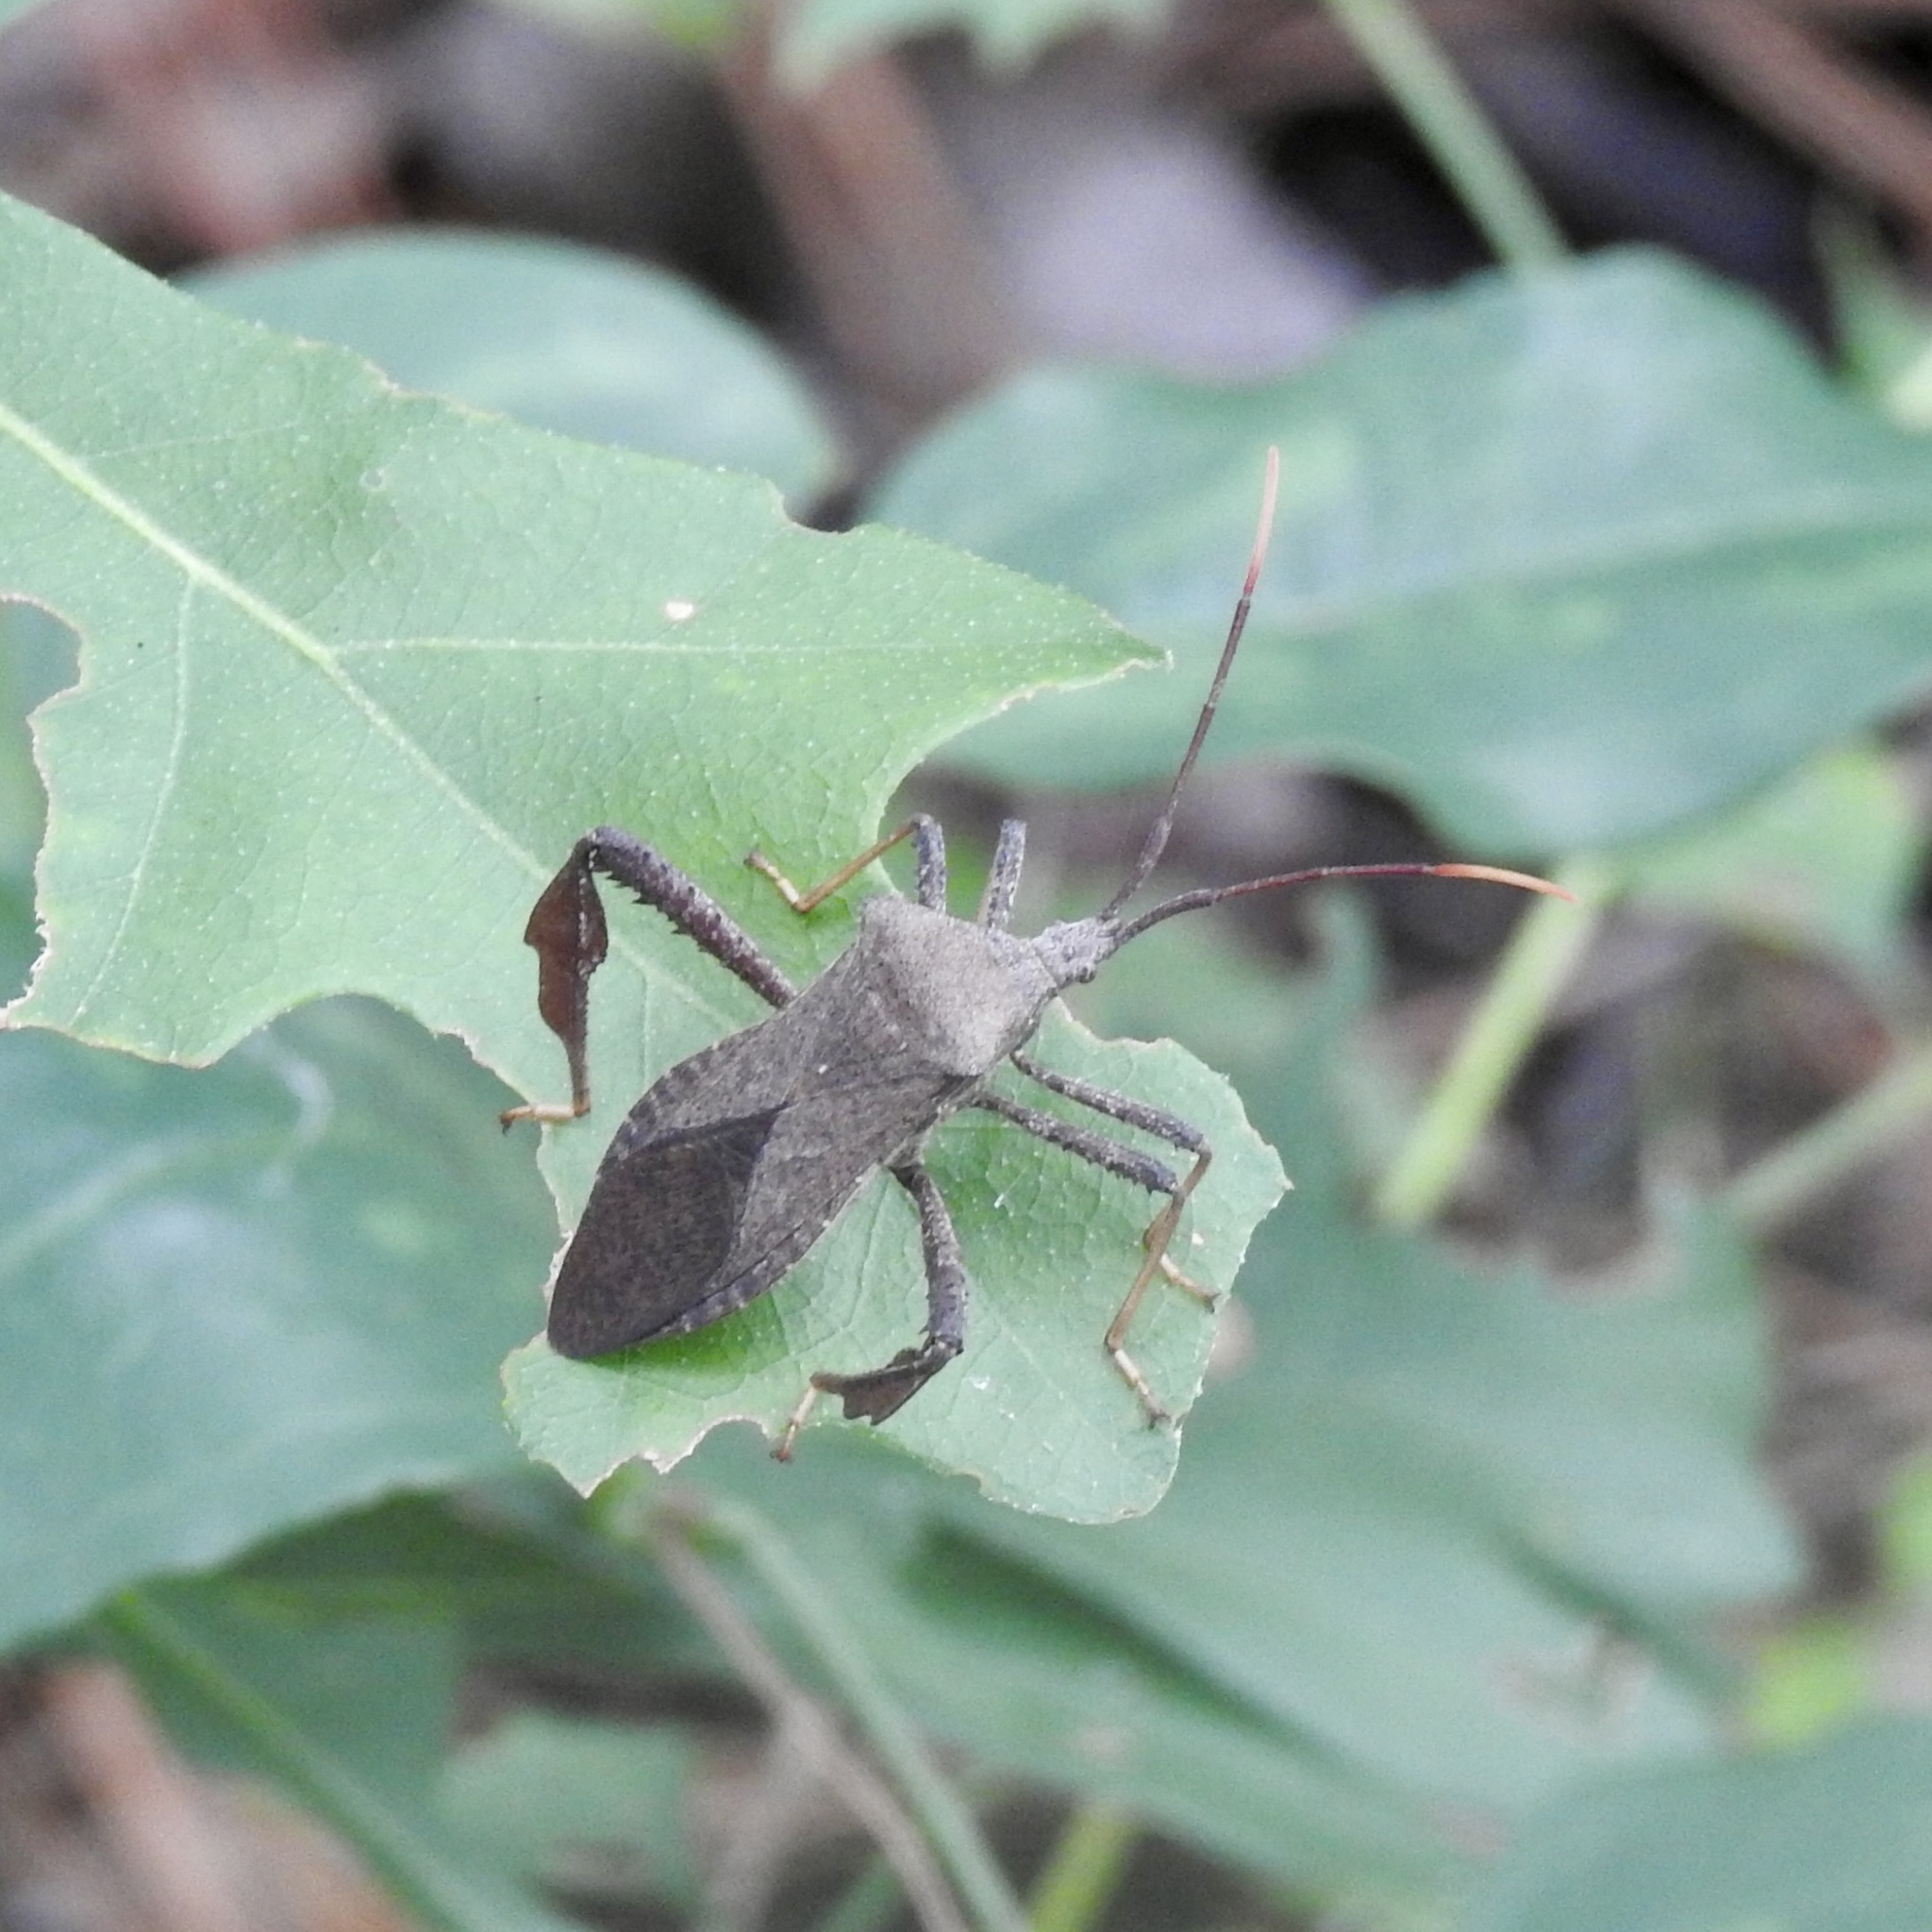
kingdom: Animalia
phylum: Arthropoda
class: Insecta
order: Hemiptera
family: Coreidae
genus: Acanthocephala
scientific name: Acanthocephala terminalis
